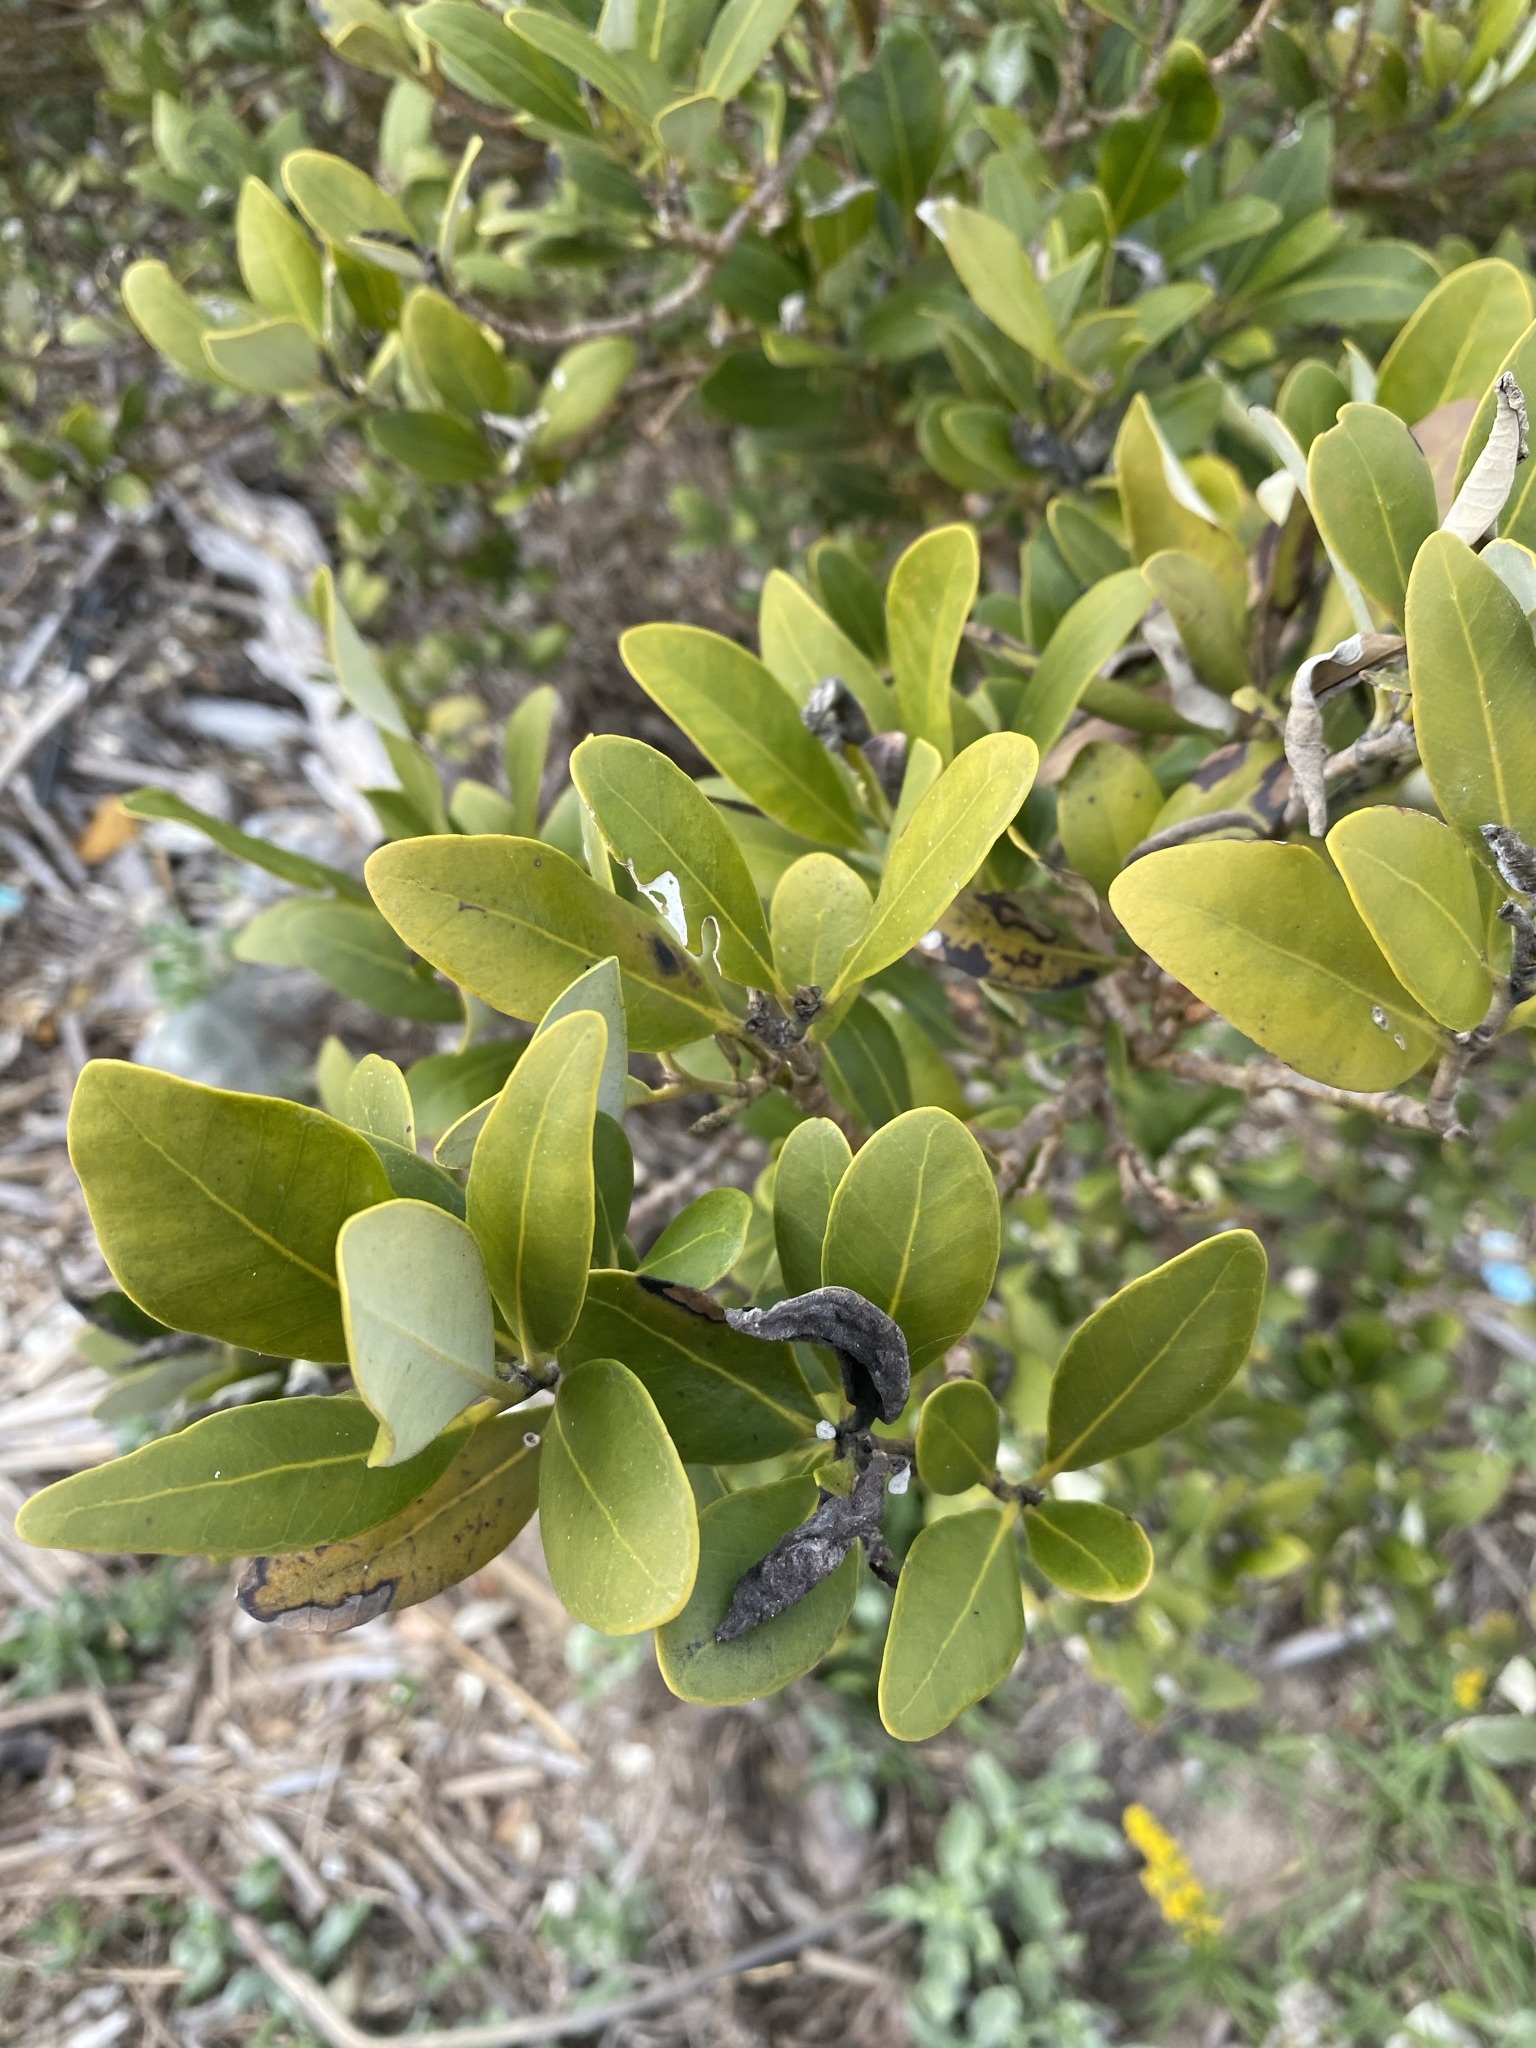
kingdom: Plantae
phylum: Tracheophyta
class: Magnoliopsida
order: Lamiales
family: Acanthaceae
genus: Avicennia
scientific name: Avicennia germinans
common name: Black mangrove
